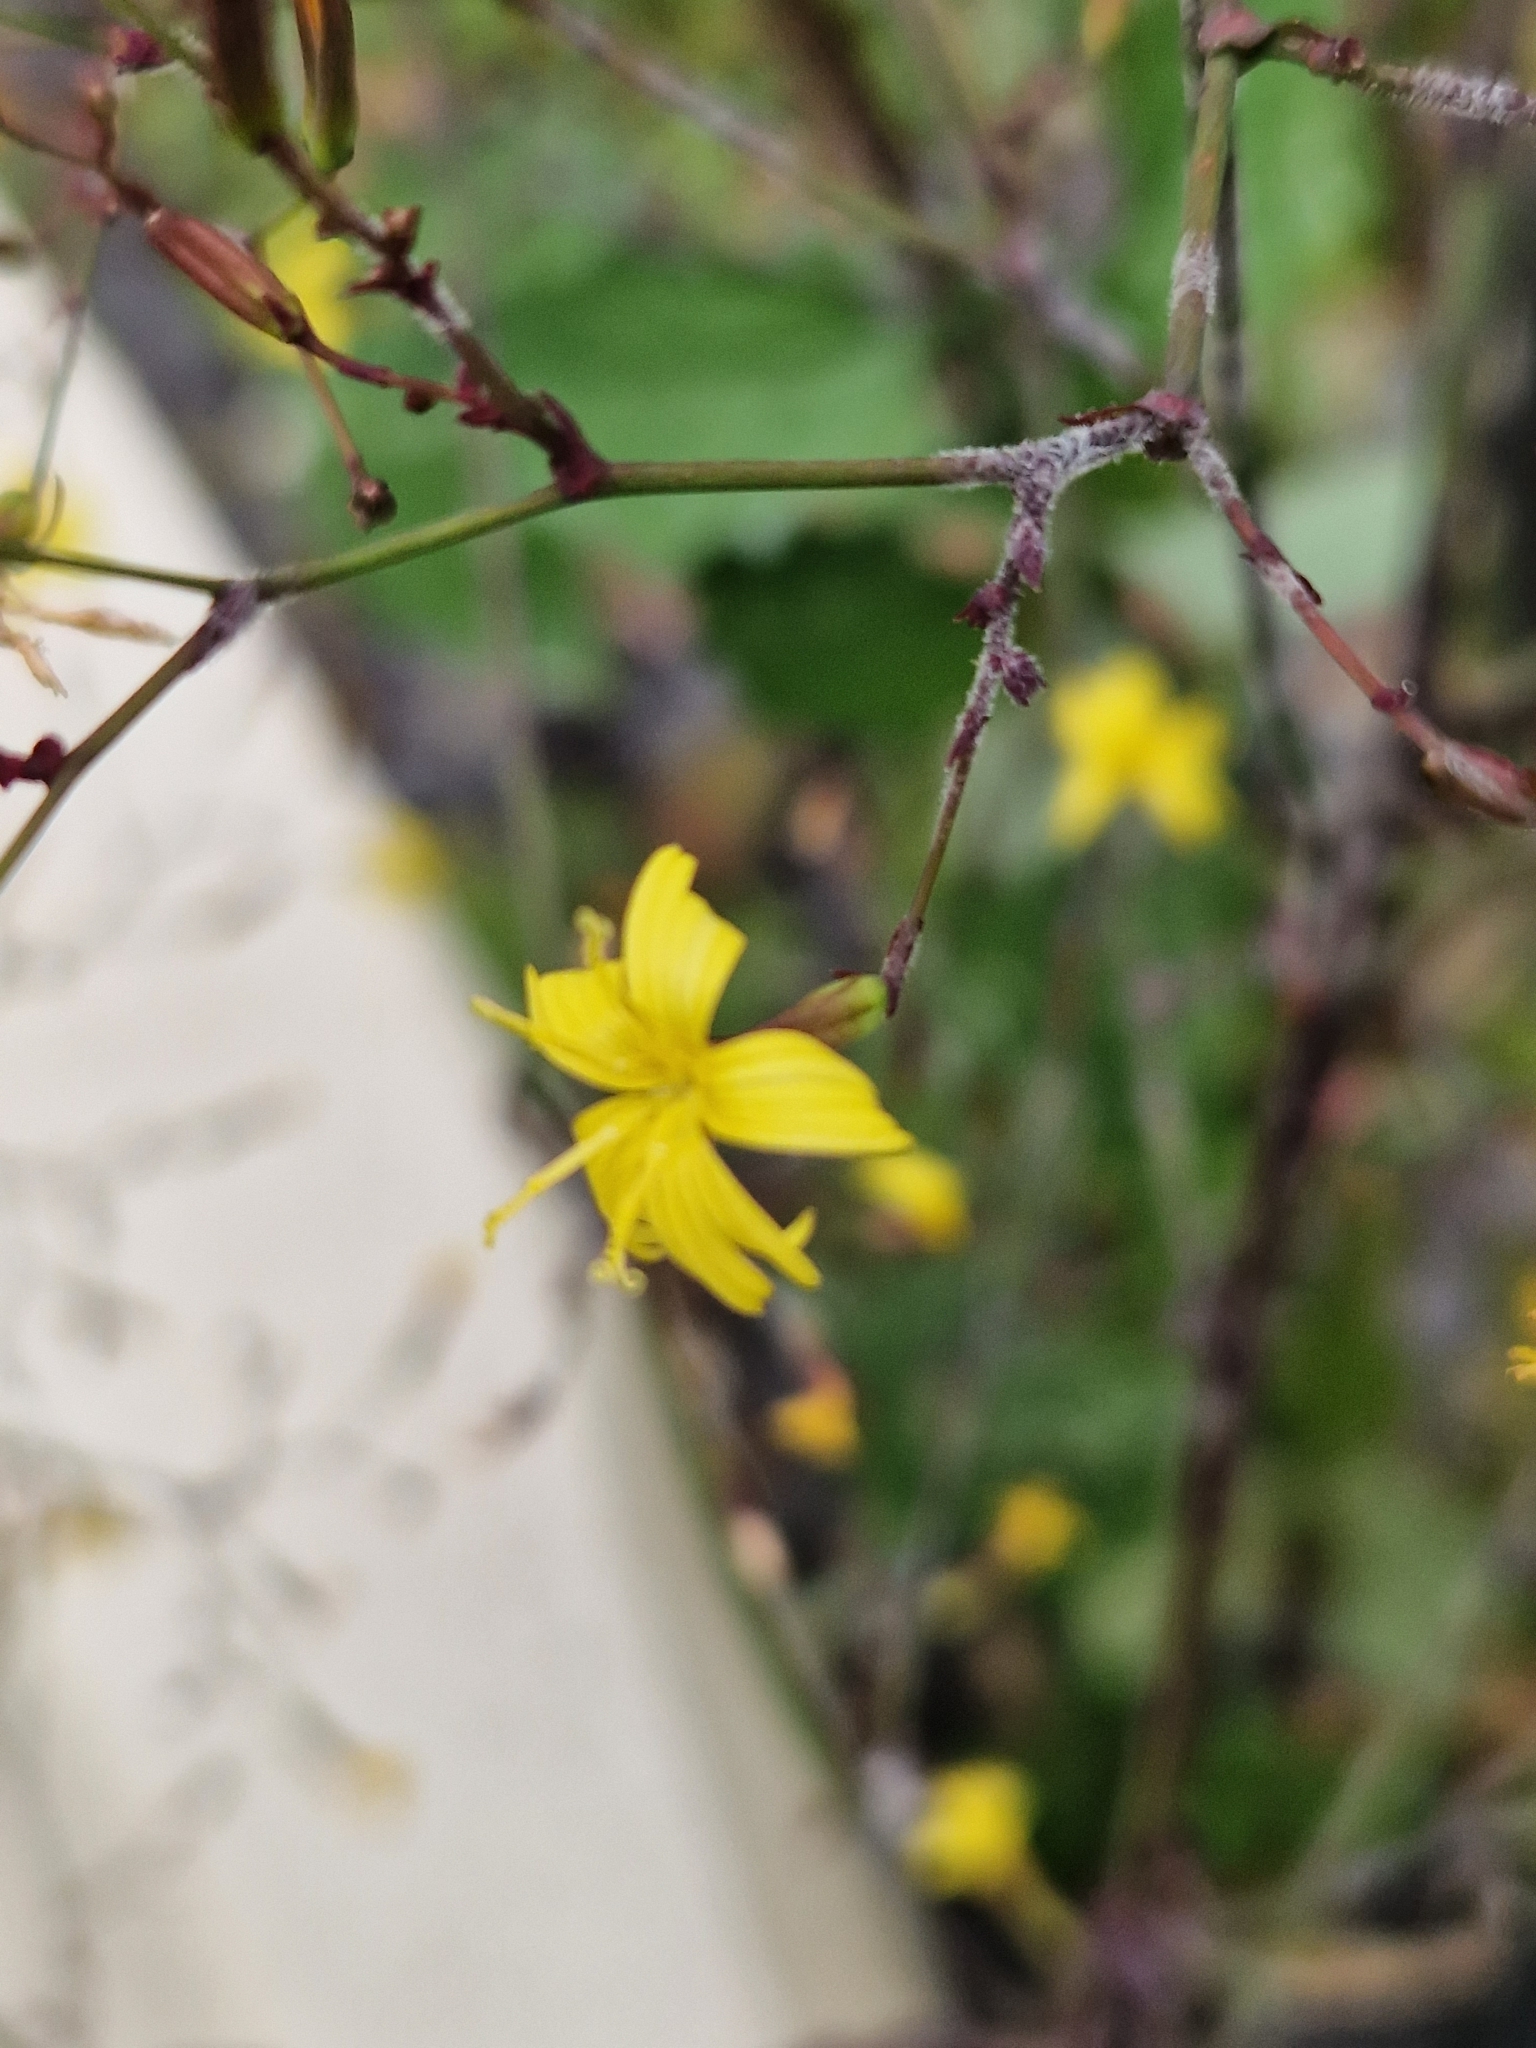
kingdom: Plantae
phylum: Tracheophyta
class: Magnoliopsida
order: Asterales
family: Asteraceae
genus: Mycelis
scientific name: Mycelis muralis
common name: Wall lettuce
